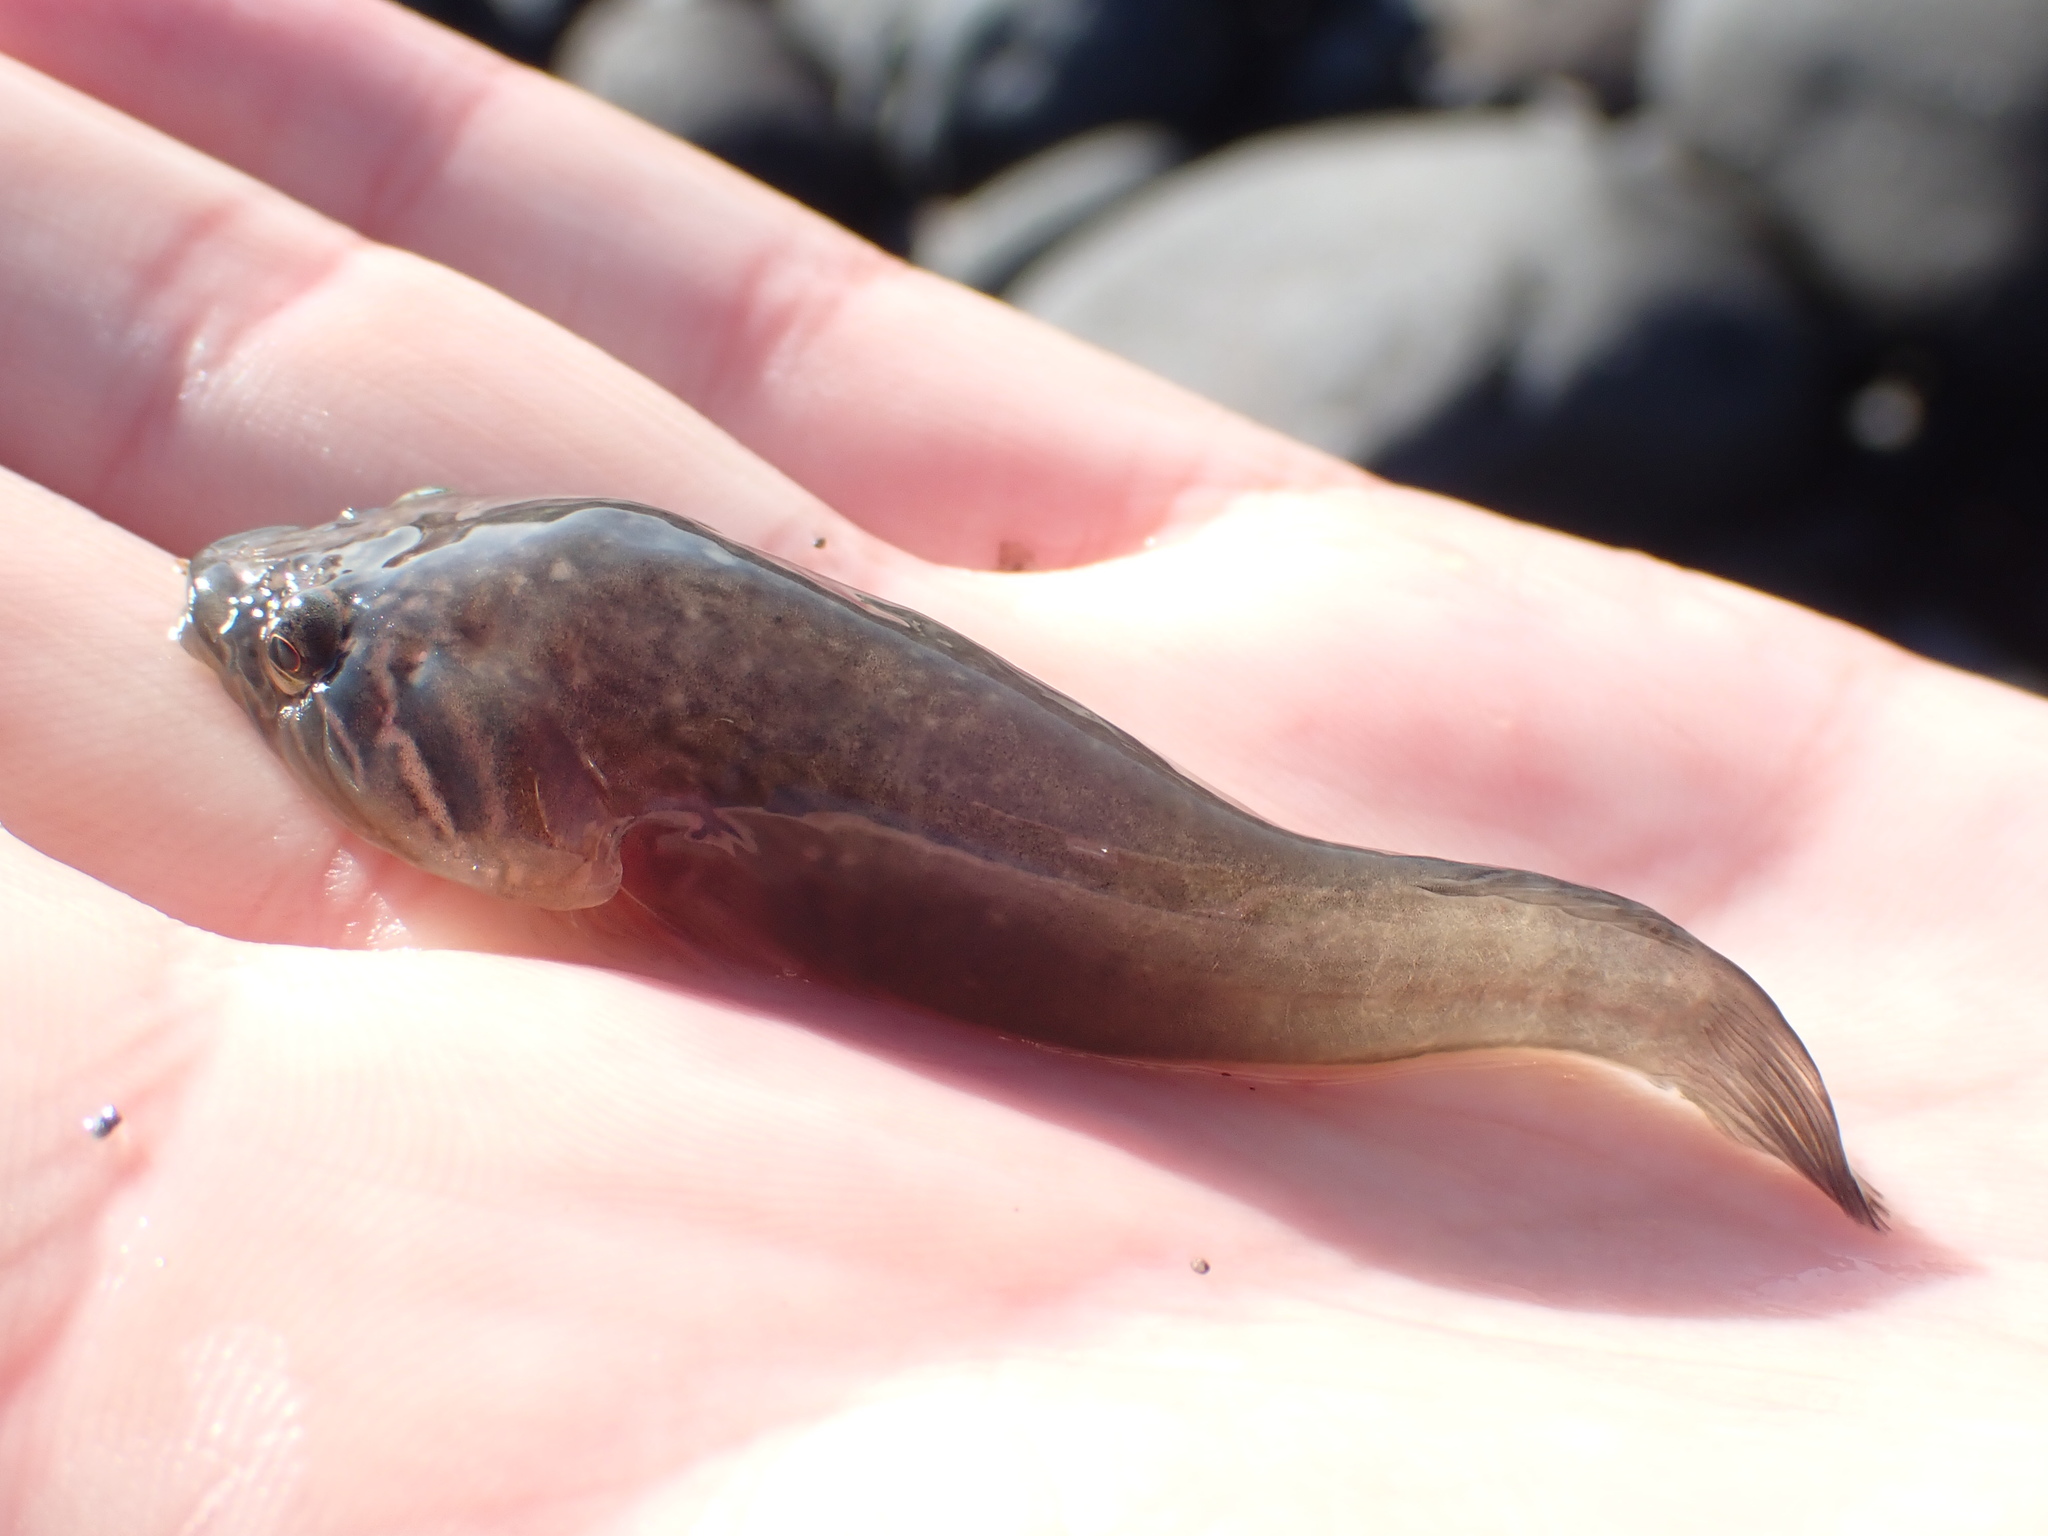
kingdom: Animalia
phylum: Chordata
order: Gobiesociformes
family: Gobiesocidae
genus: Trachelochismus
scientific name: Trachelochismus pinnulatus
